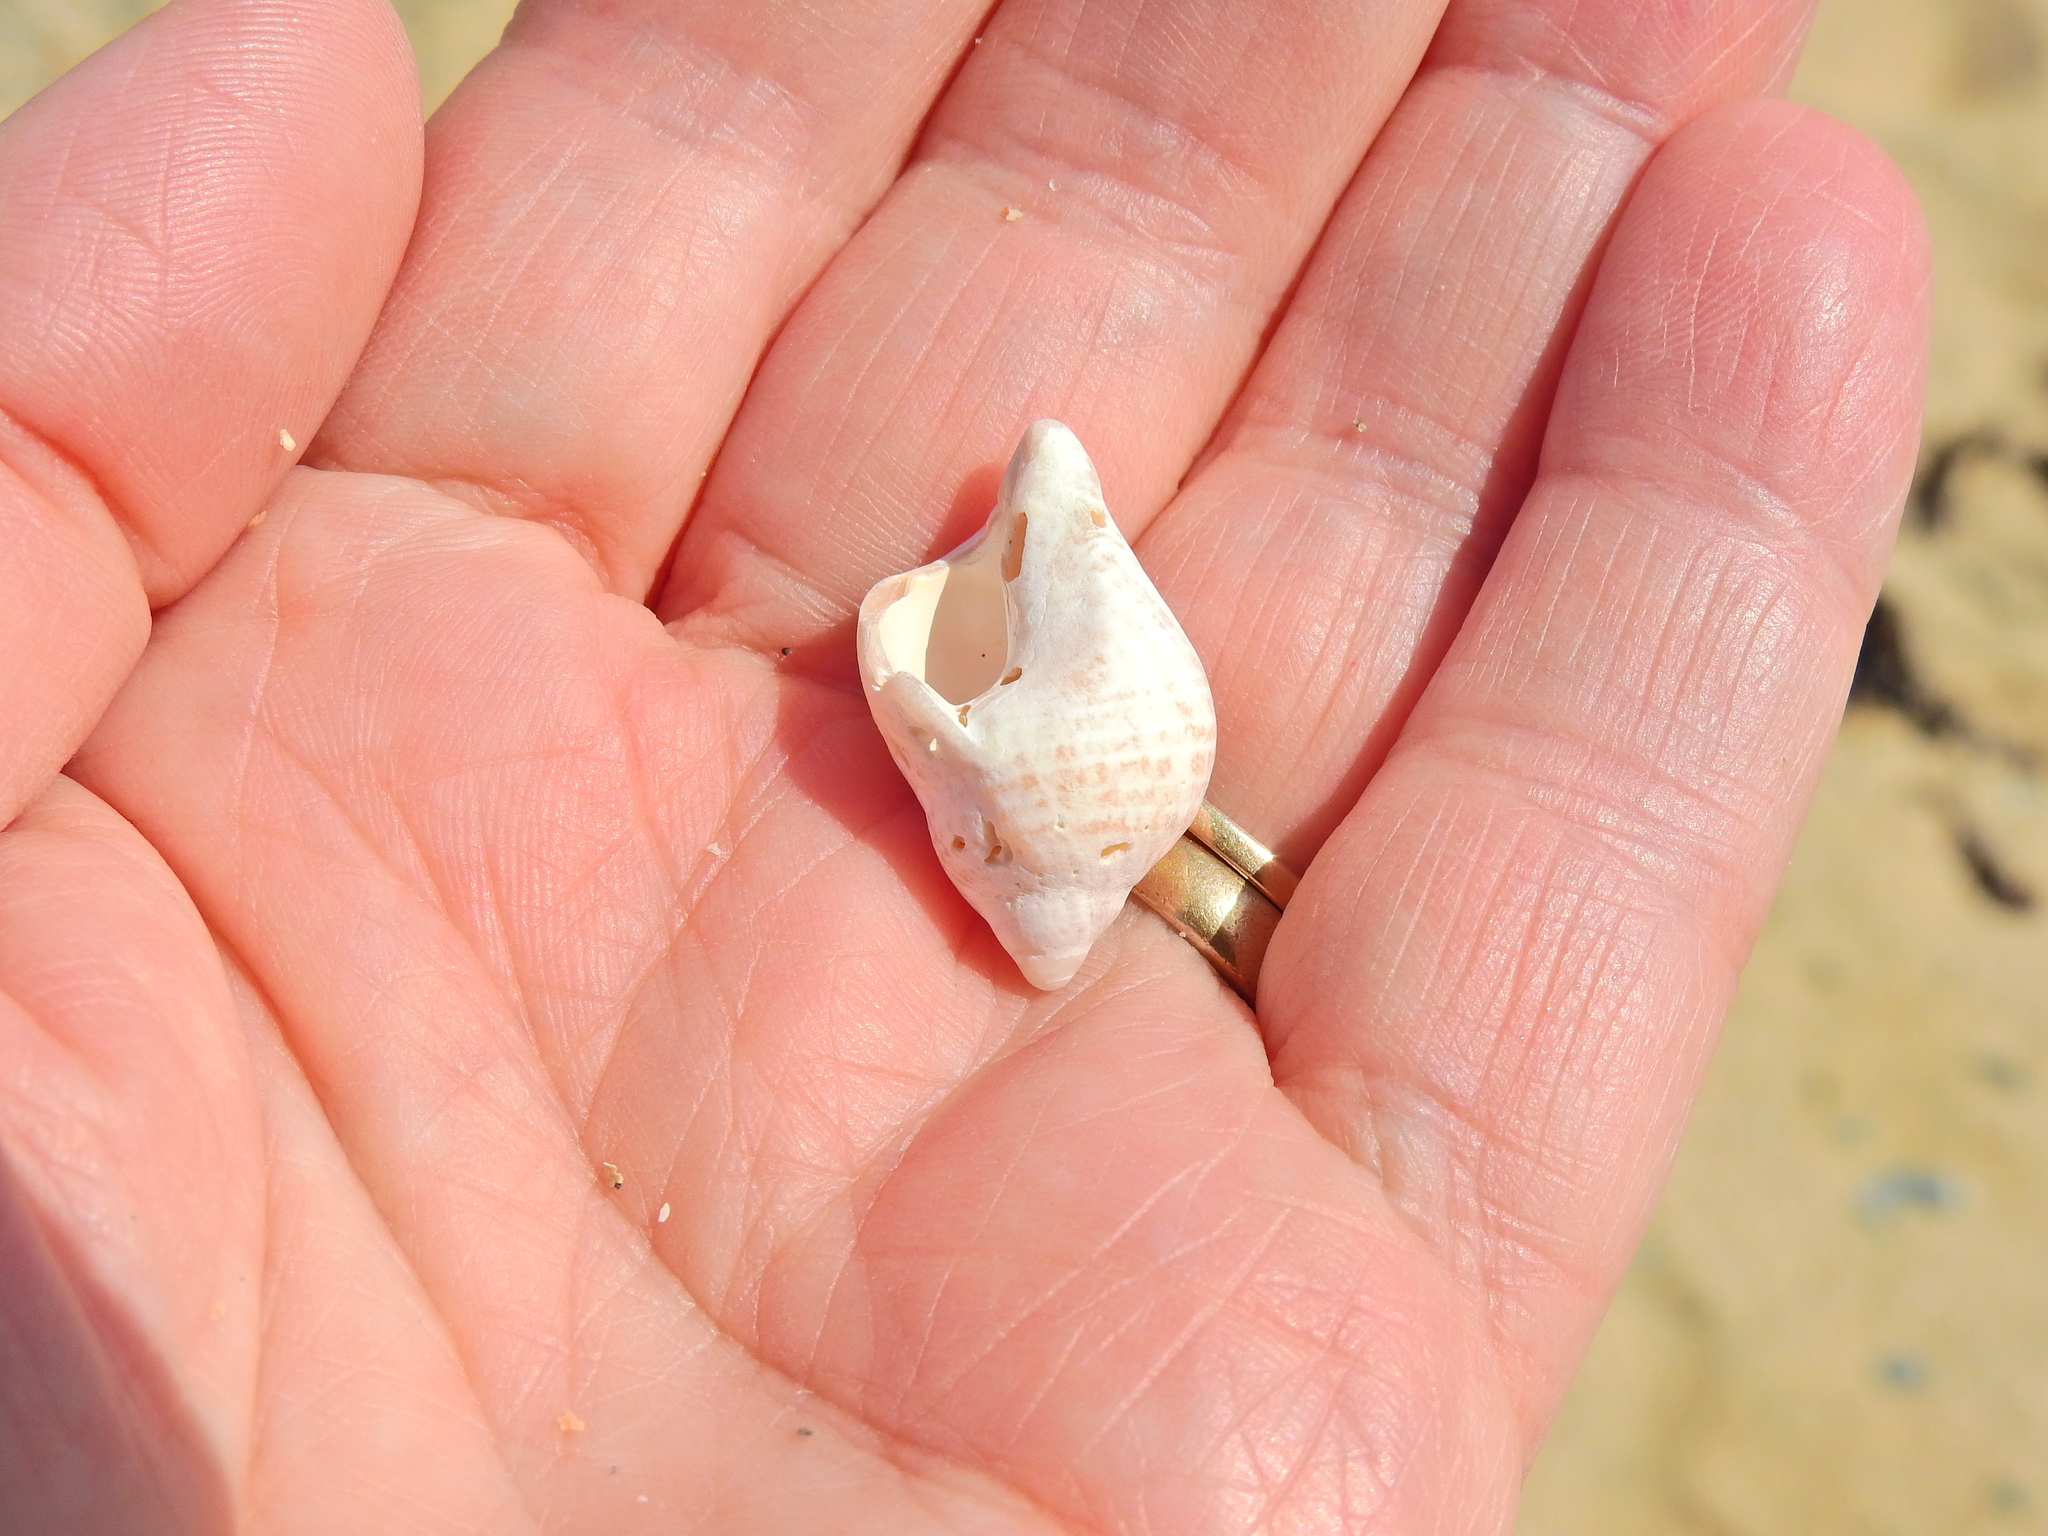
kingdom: Animalia
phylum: Mollusca
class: Gastropoda
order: Neogastropoda
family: Muricidae
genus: Nucella
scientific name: Nucella lapillus
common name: Dog whelk
